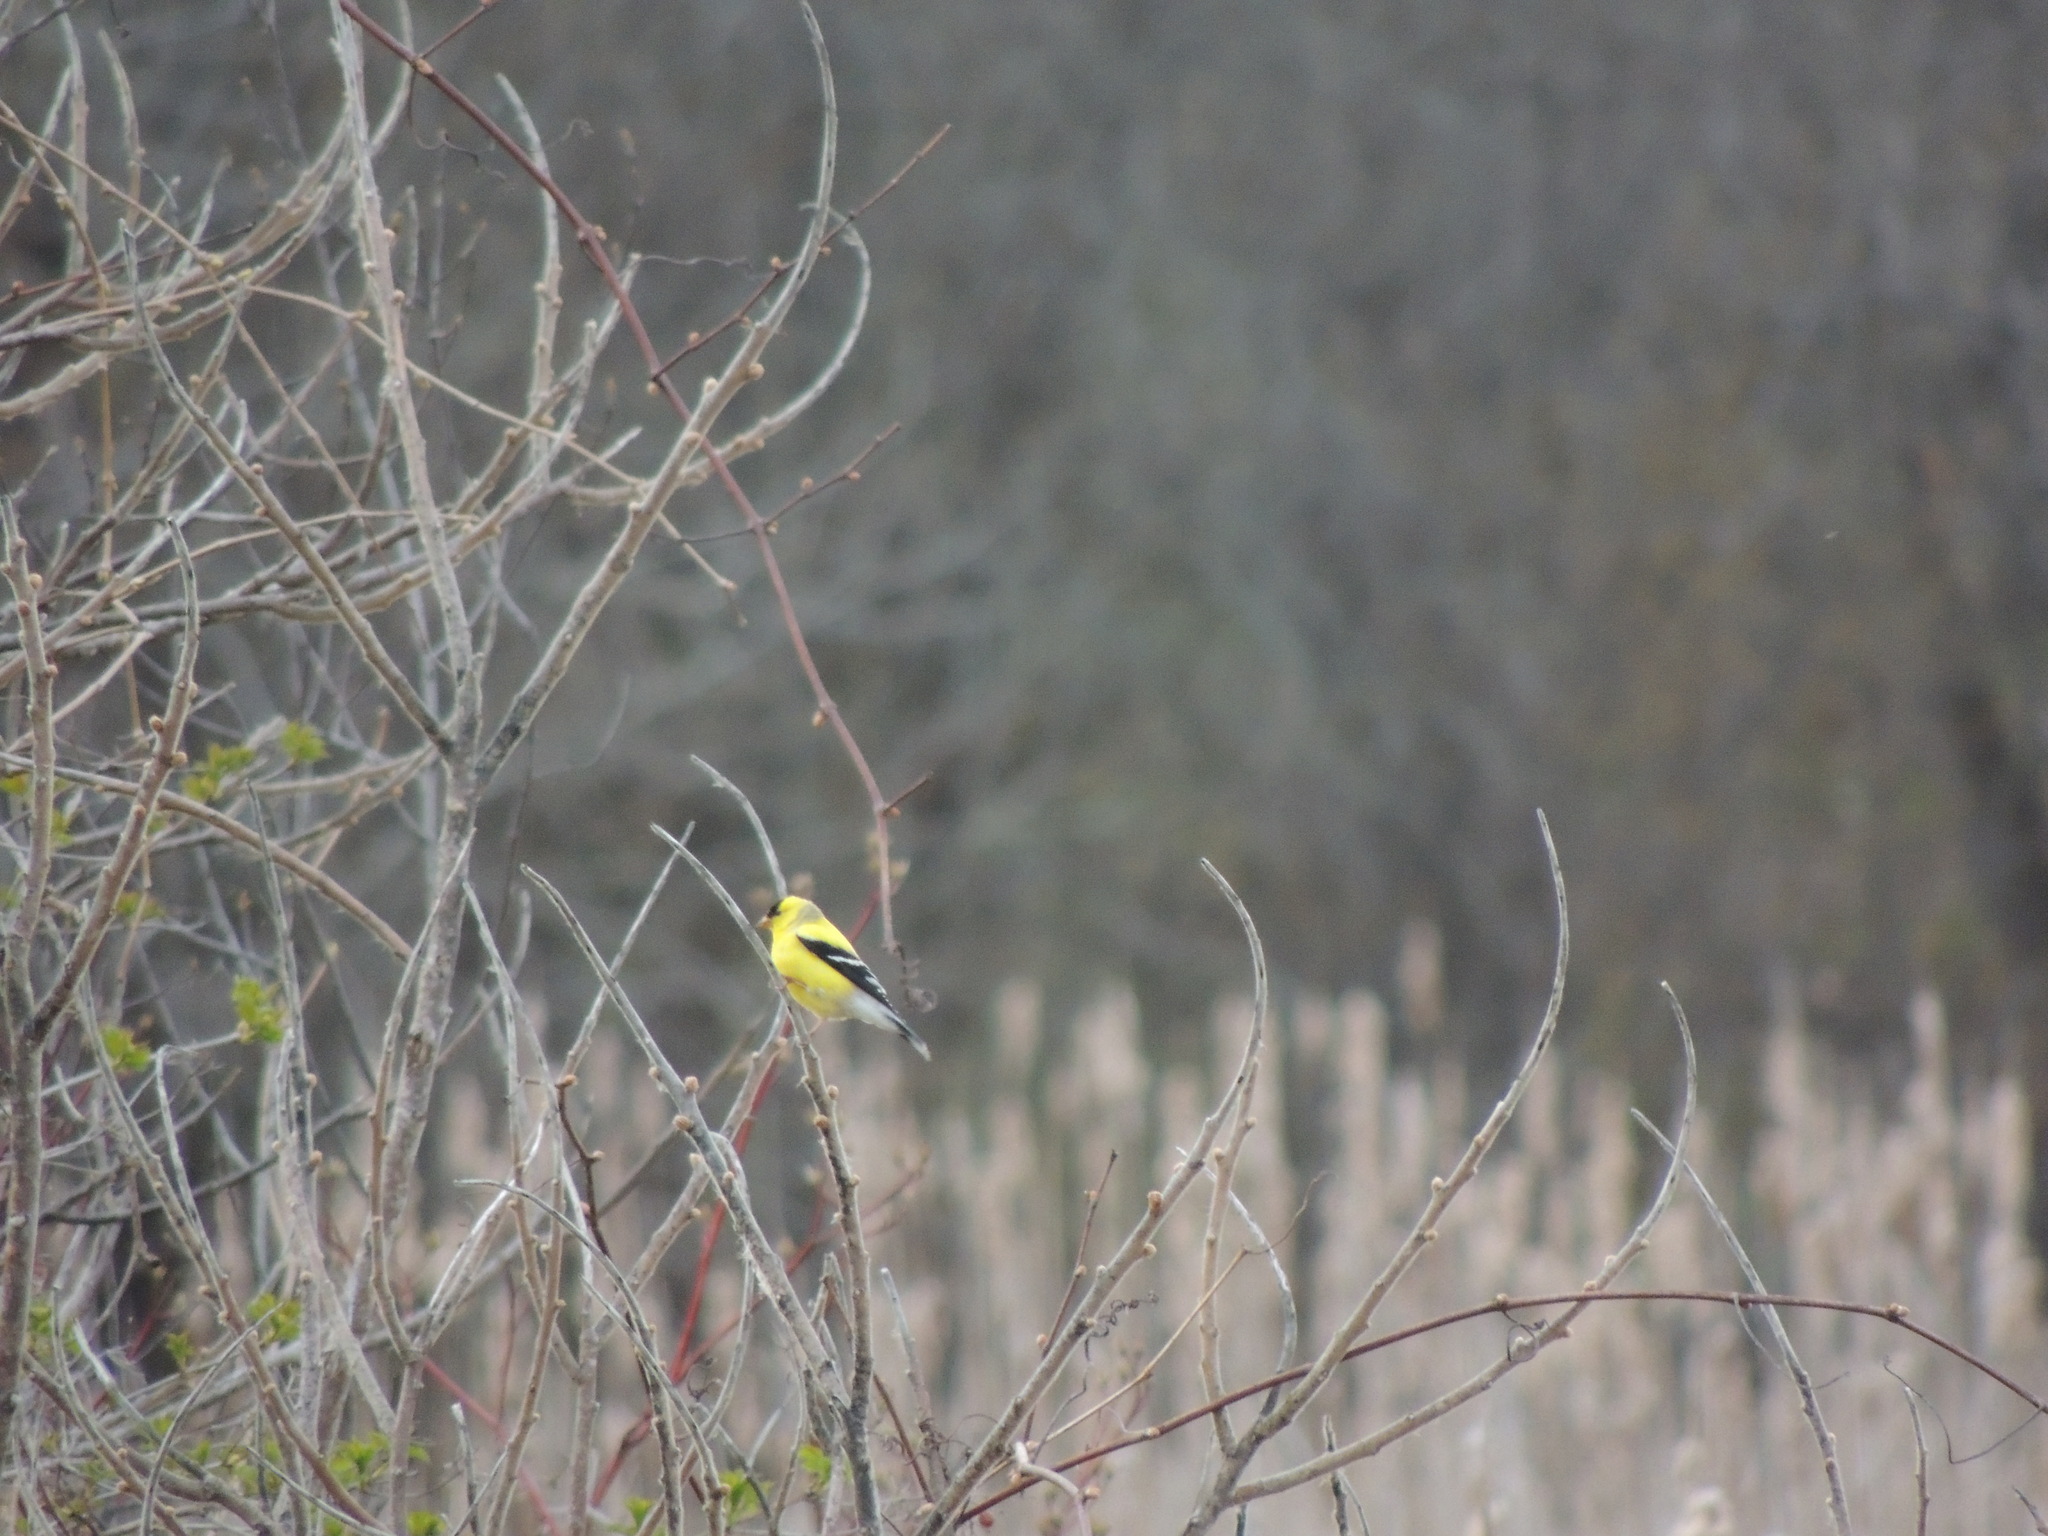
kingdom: Animalia
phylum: Chordata
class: Aves
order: Passeriformes
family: Fringillidae
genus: Spinus
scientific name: Spinus tristis
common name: American goldfinch
